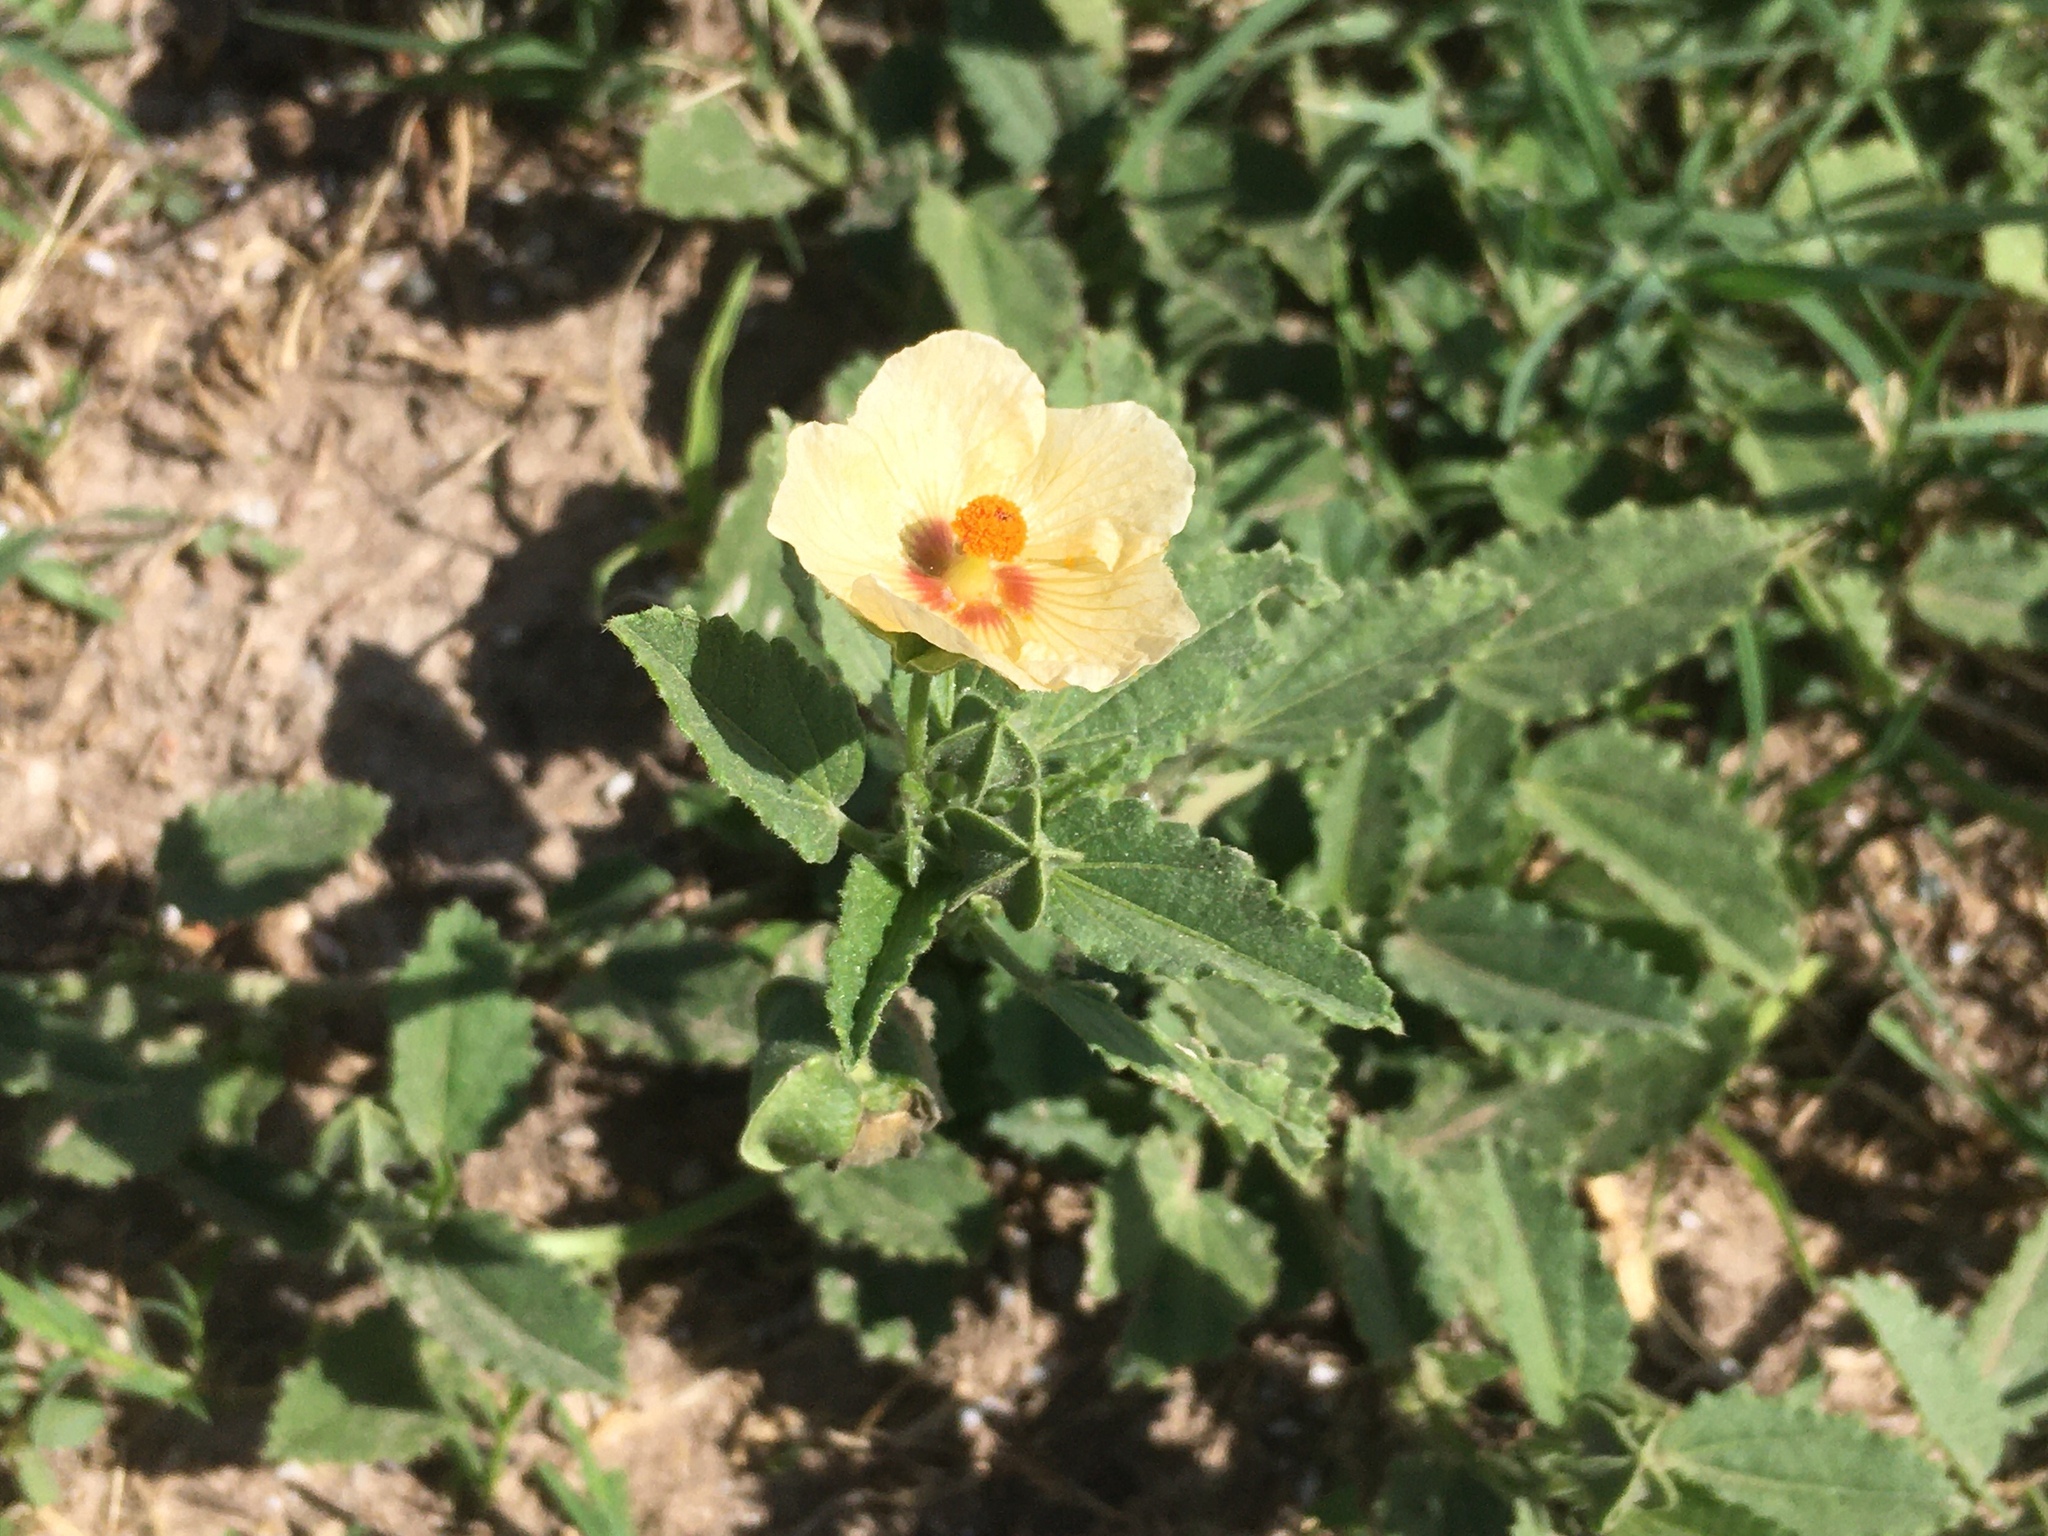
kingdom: Plantae
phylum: Tracheophyta
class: Magnoliopsida
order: Malvales
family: Malvaceae
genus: Rhynchosida
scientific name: Rhynchosida physocalyx
